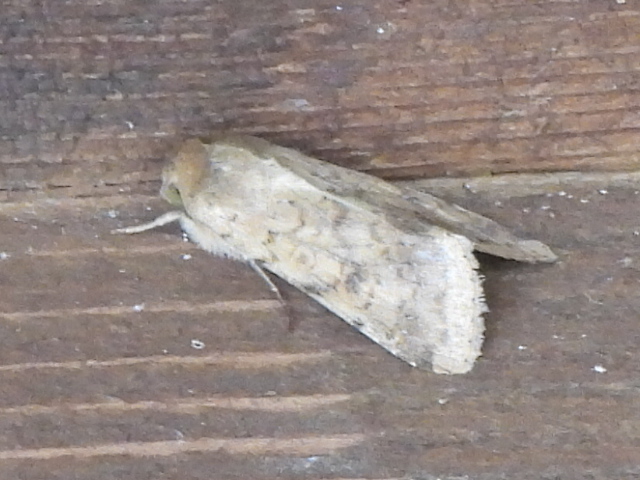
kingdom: Animalia
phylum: Arthropoda
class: Insecta
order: Lepidoptera
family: Noctuidae
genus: Helicoverpa
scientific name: Helicoverpa zea
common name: Bollworm
